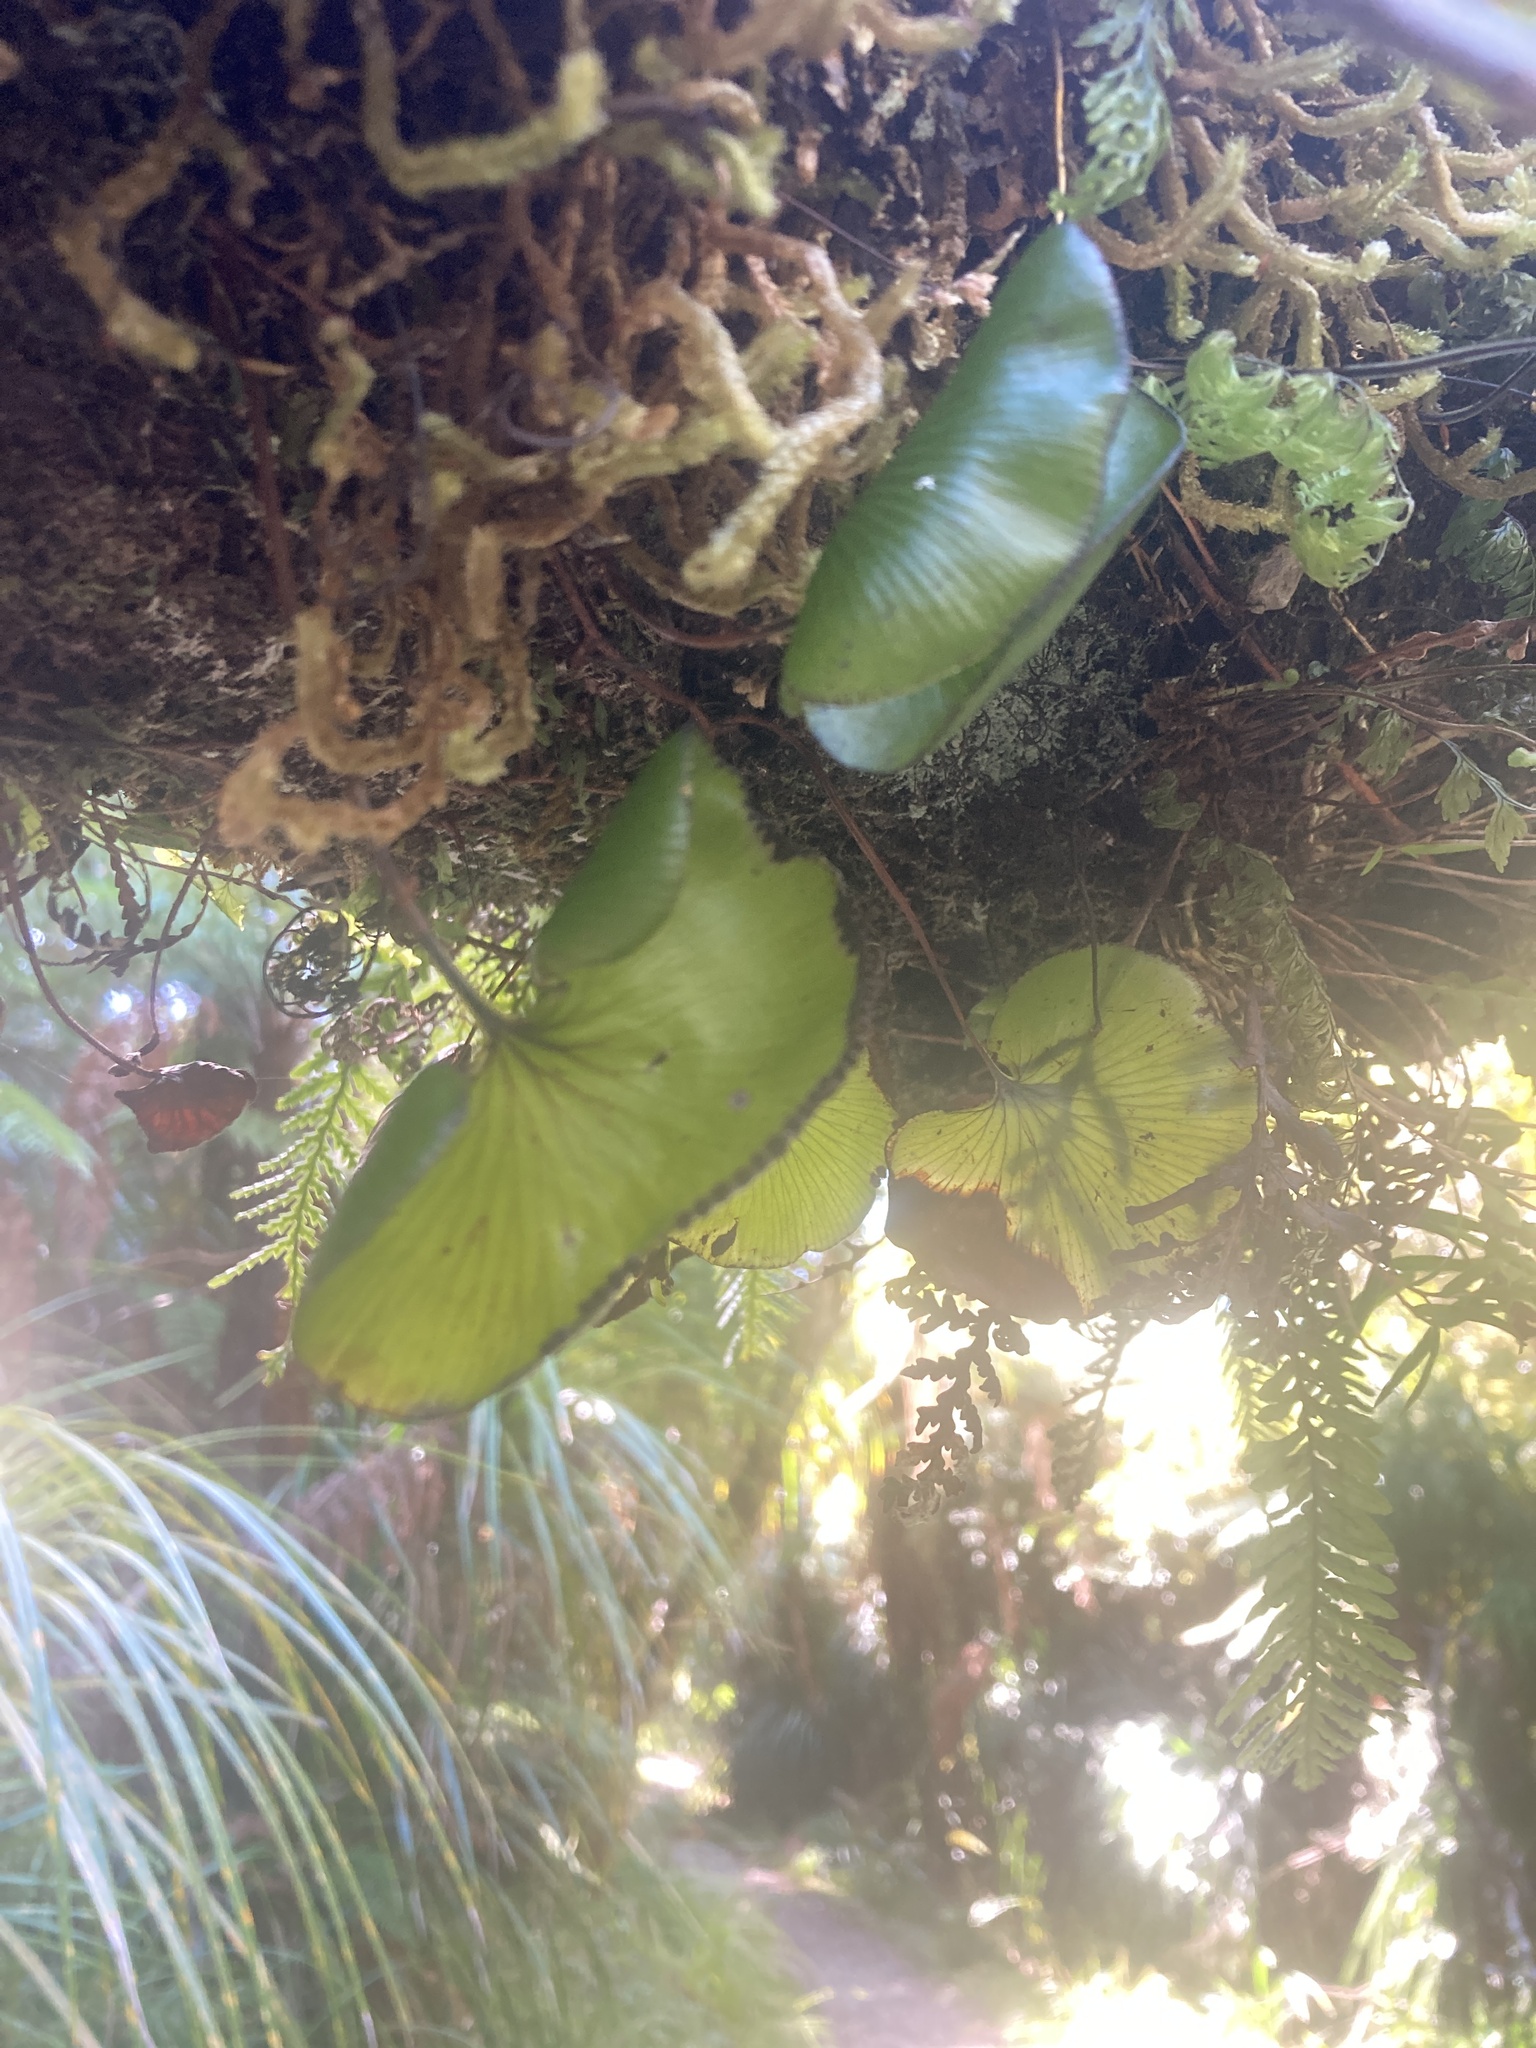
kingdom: Plantae
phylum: Tracheophyta
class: Polypodiopsida
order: Hymenophyllales
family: Hymenophyllaceae
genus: Hymenophyllum
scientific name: Hymenophyllum nephrophyllum
